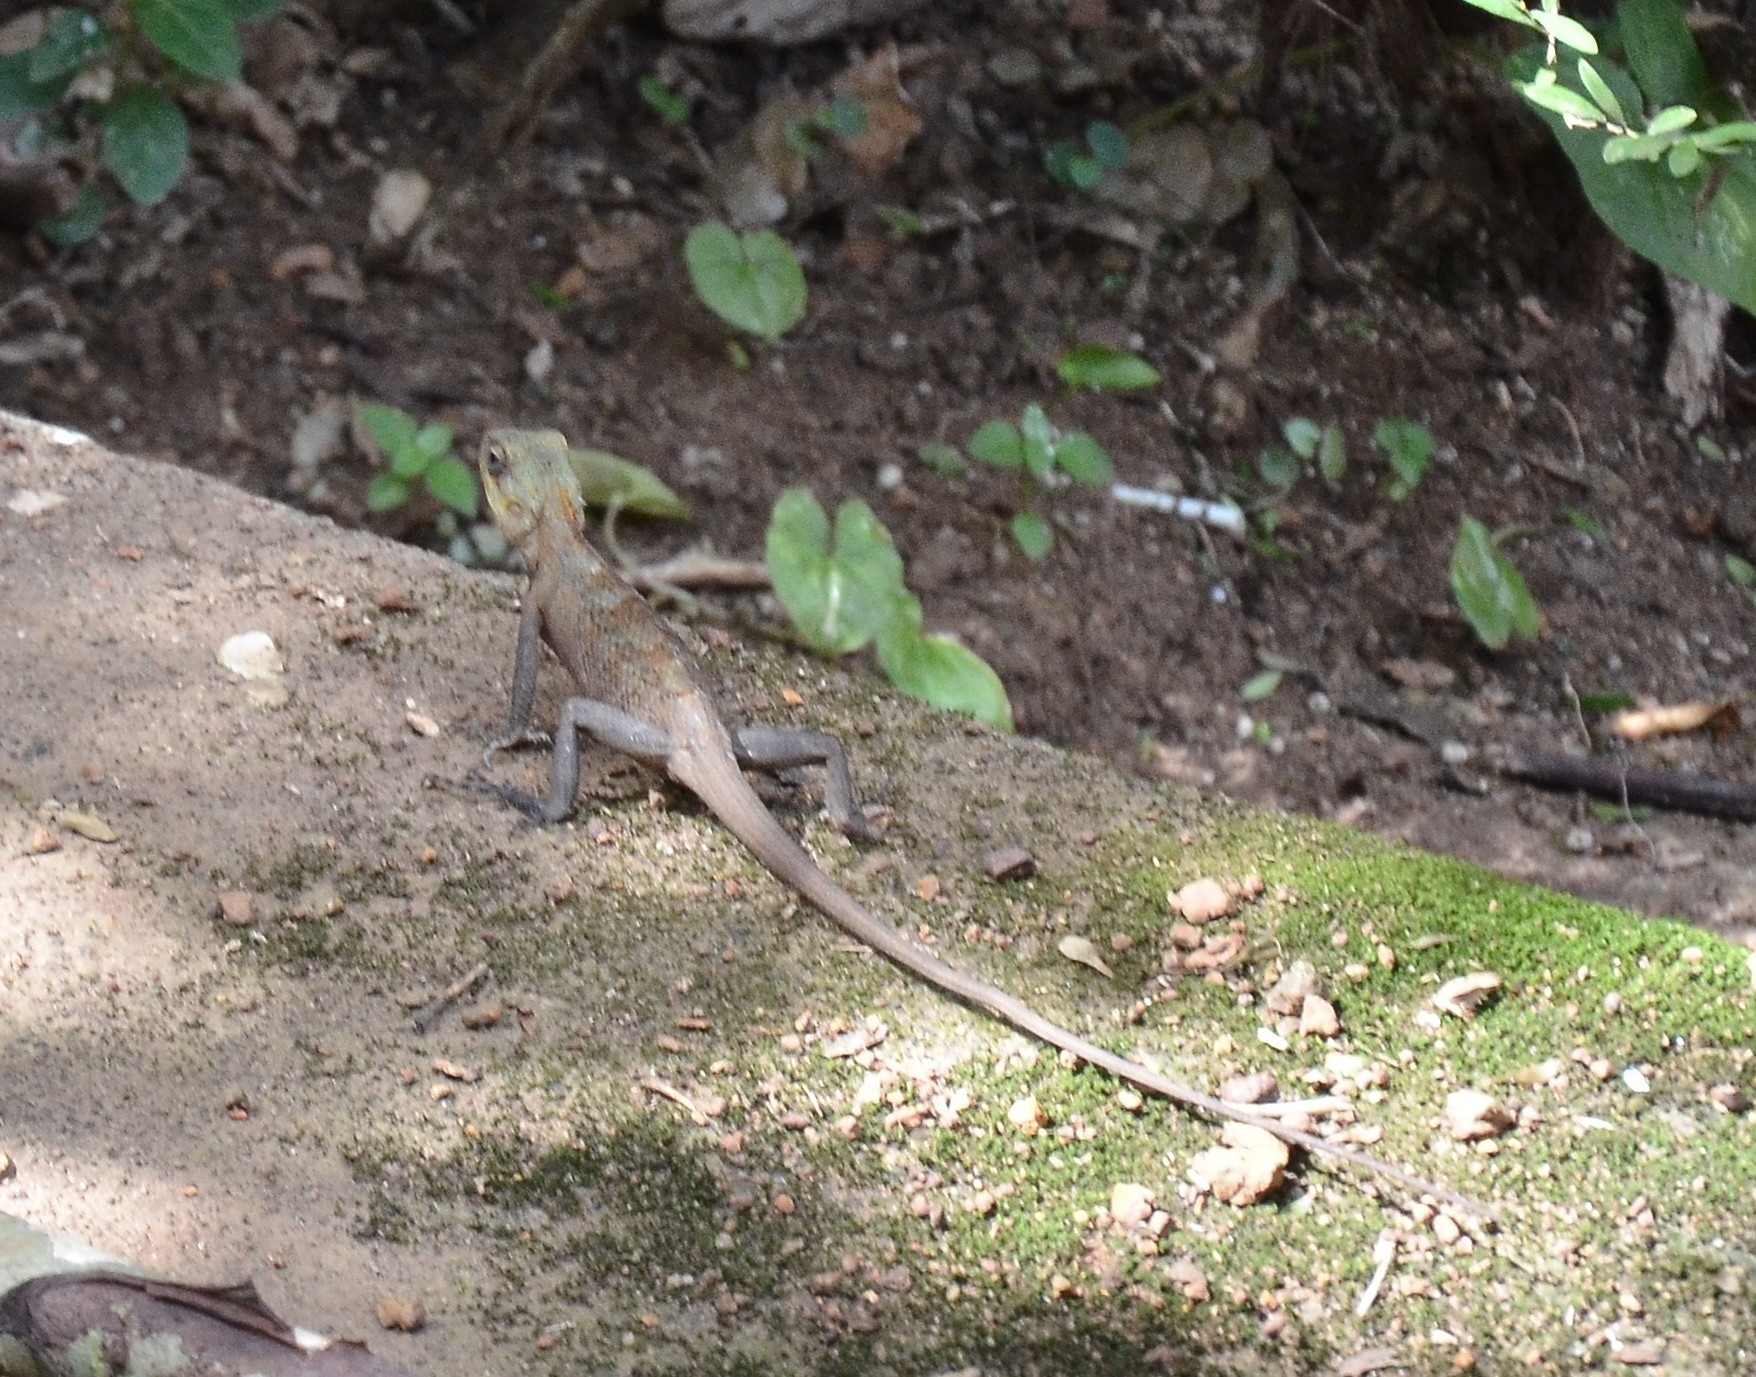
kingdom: Animalia
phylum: Chordata
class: Squamata
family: Agamidae
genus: Calotes
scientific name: Calotes versicolor
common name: Oriental garden lizard
